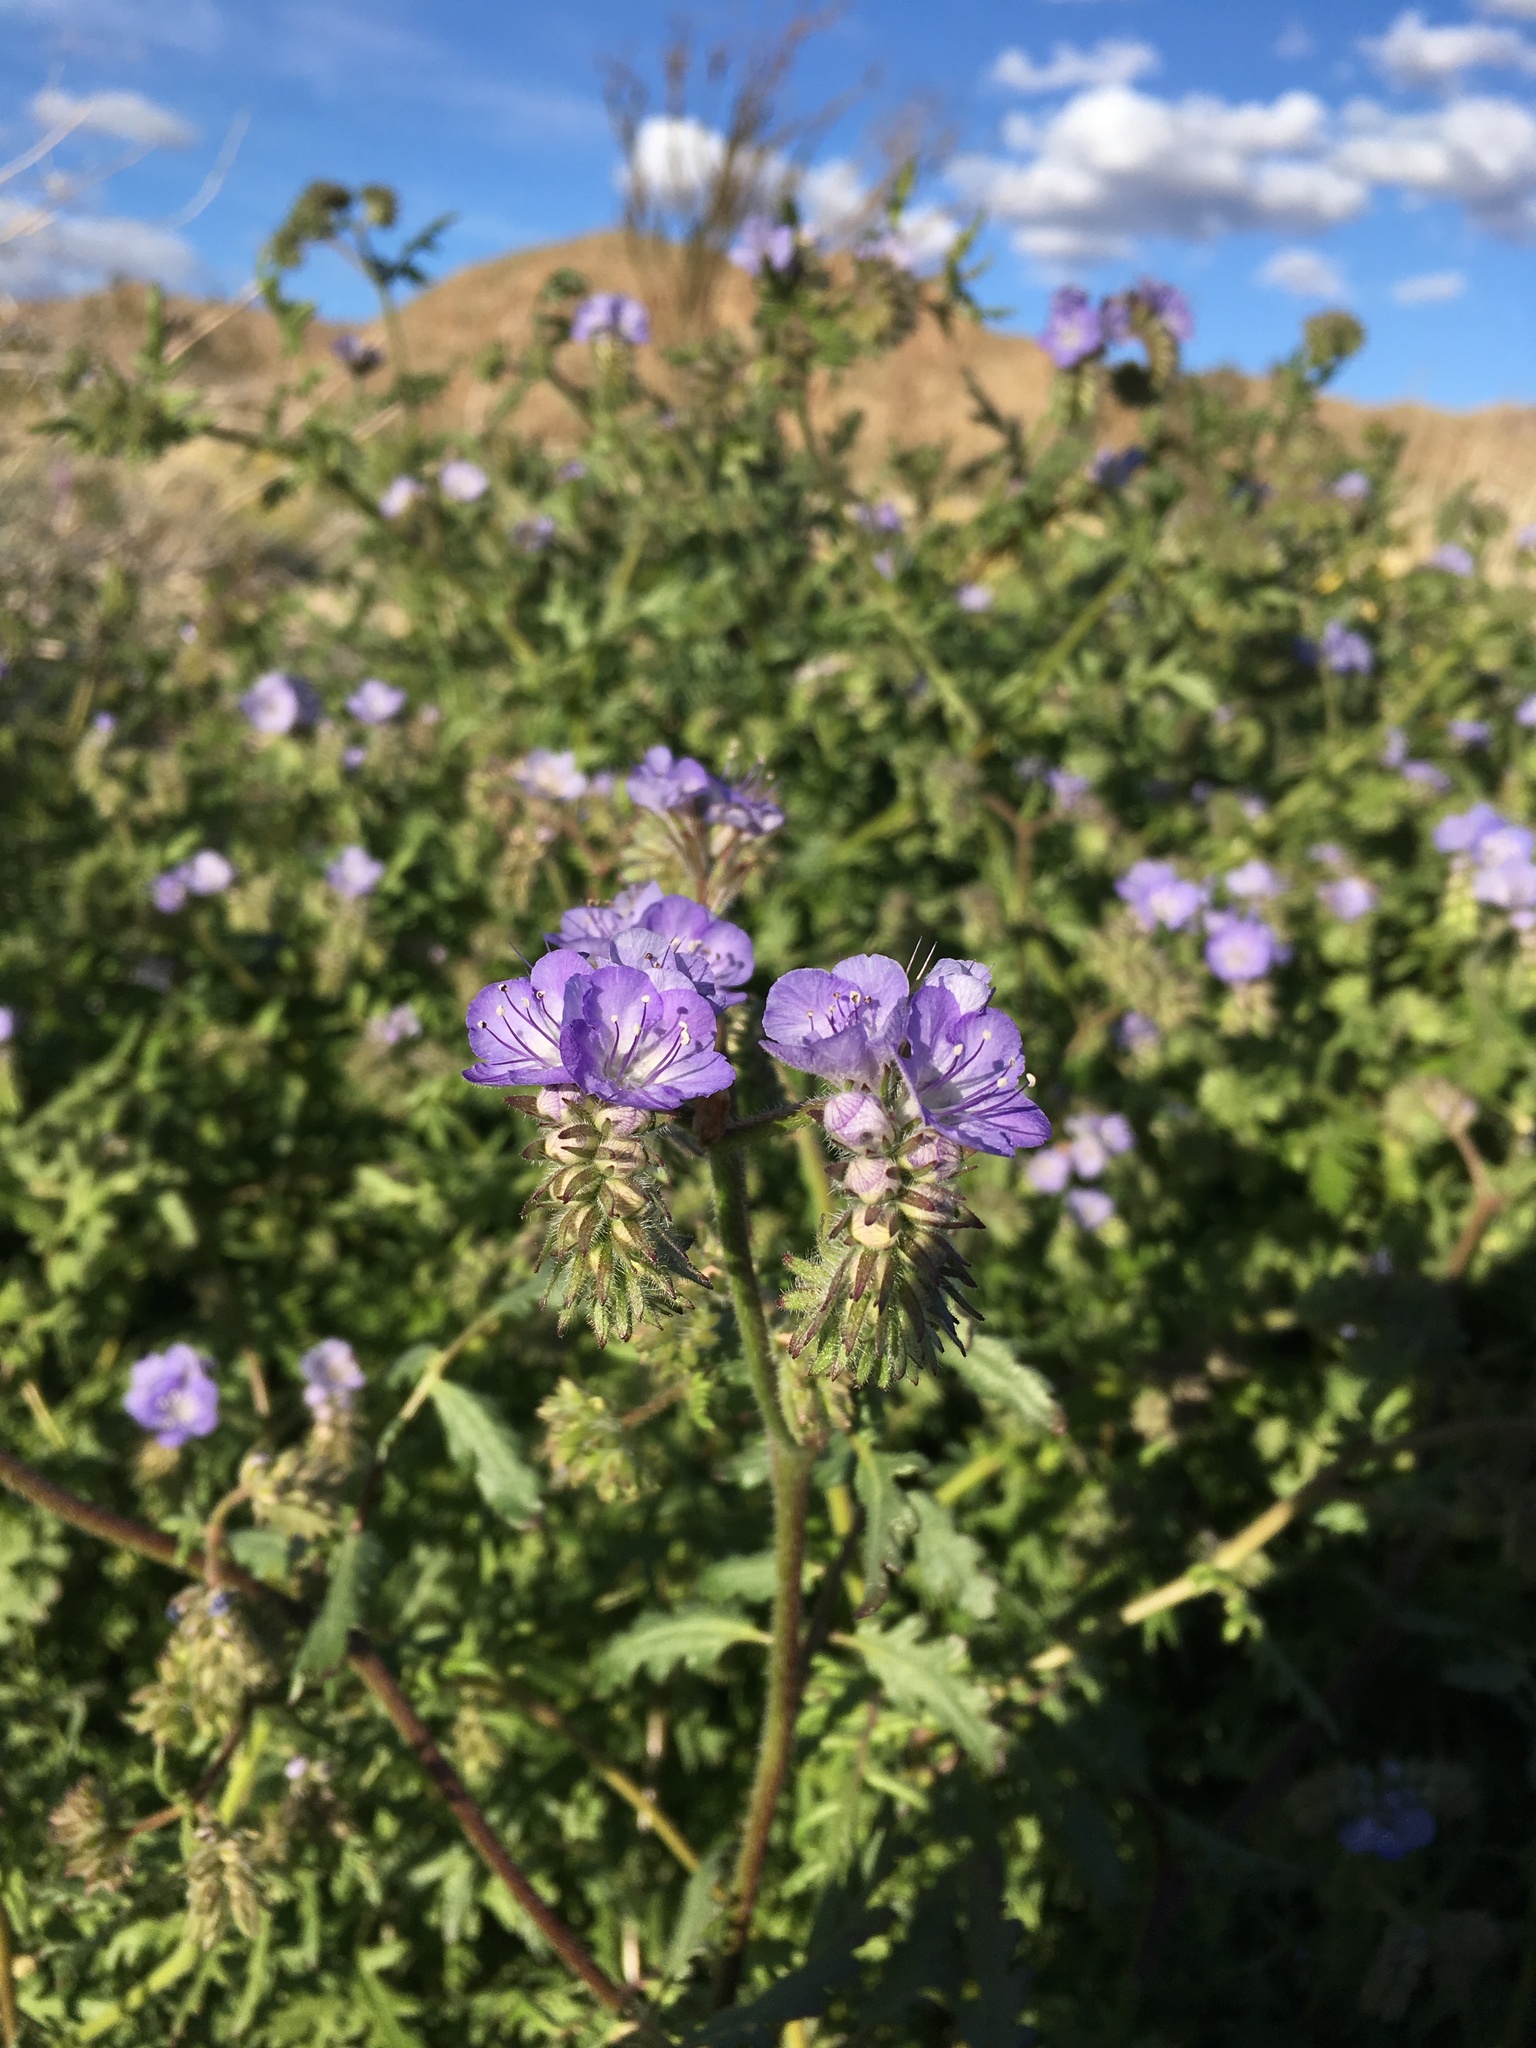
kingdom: Plantae
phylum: Tracheophyta
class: Magnoliopsida
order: Boraginales
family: Hydrophyllaceae
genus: Phacelia
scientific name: Phacelia distans
